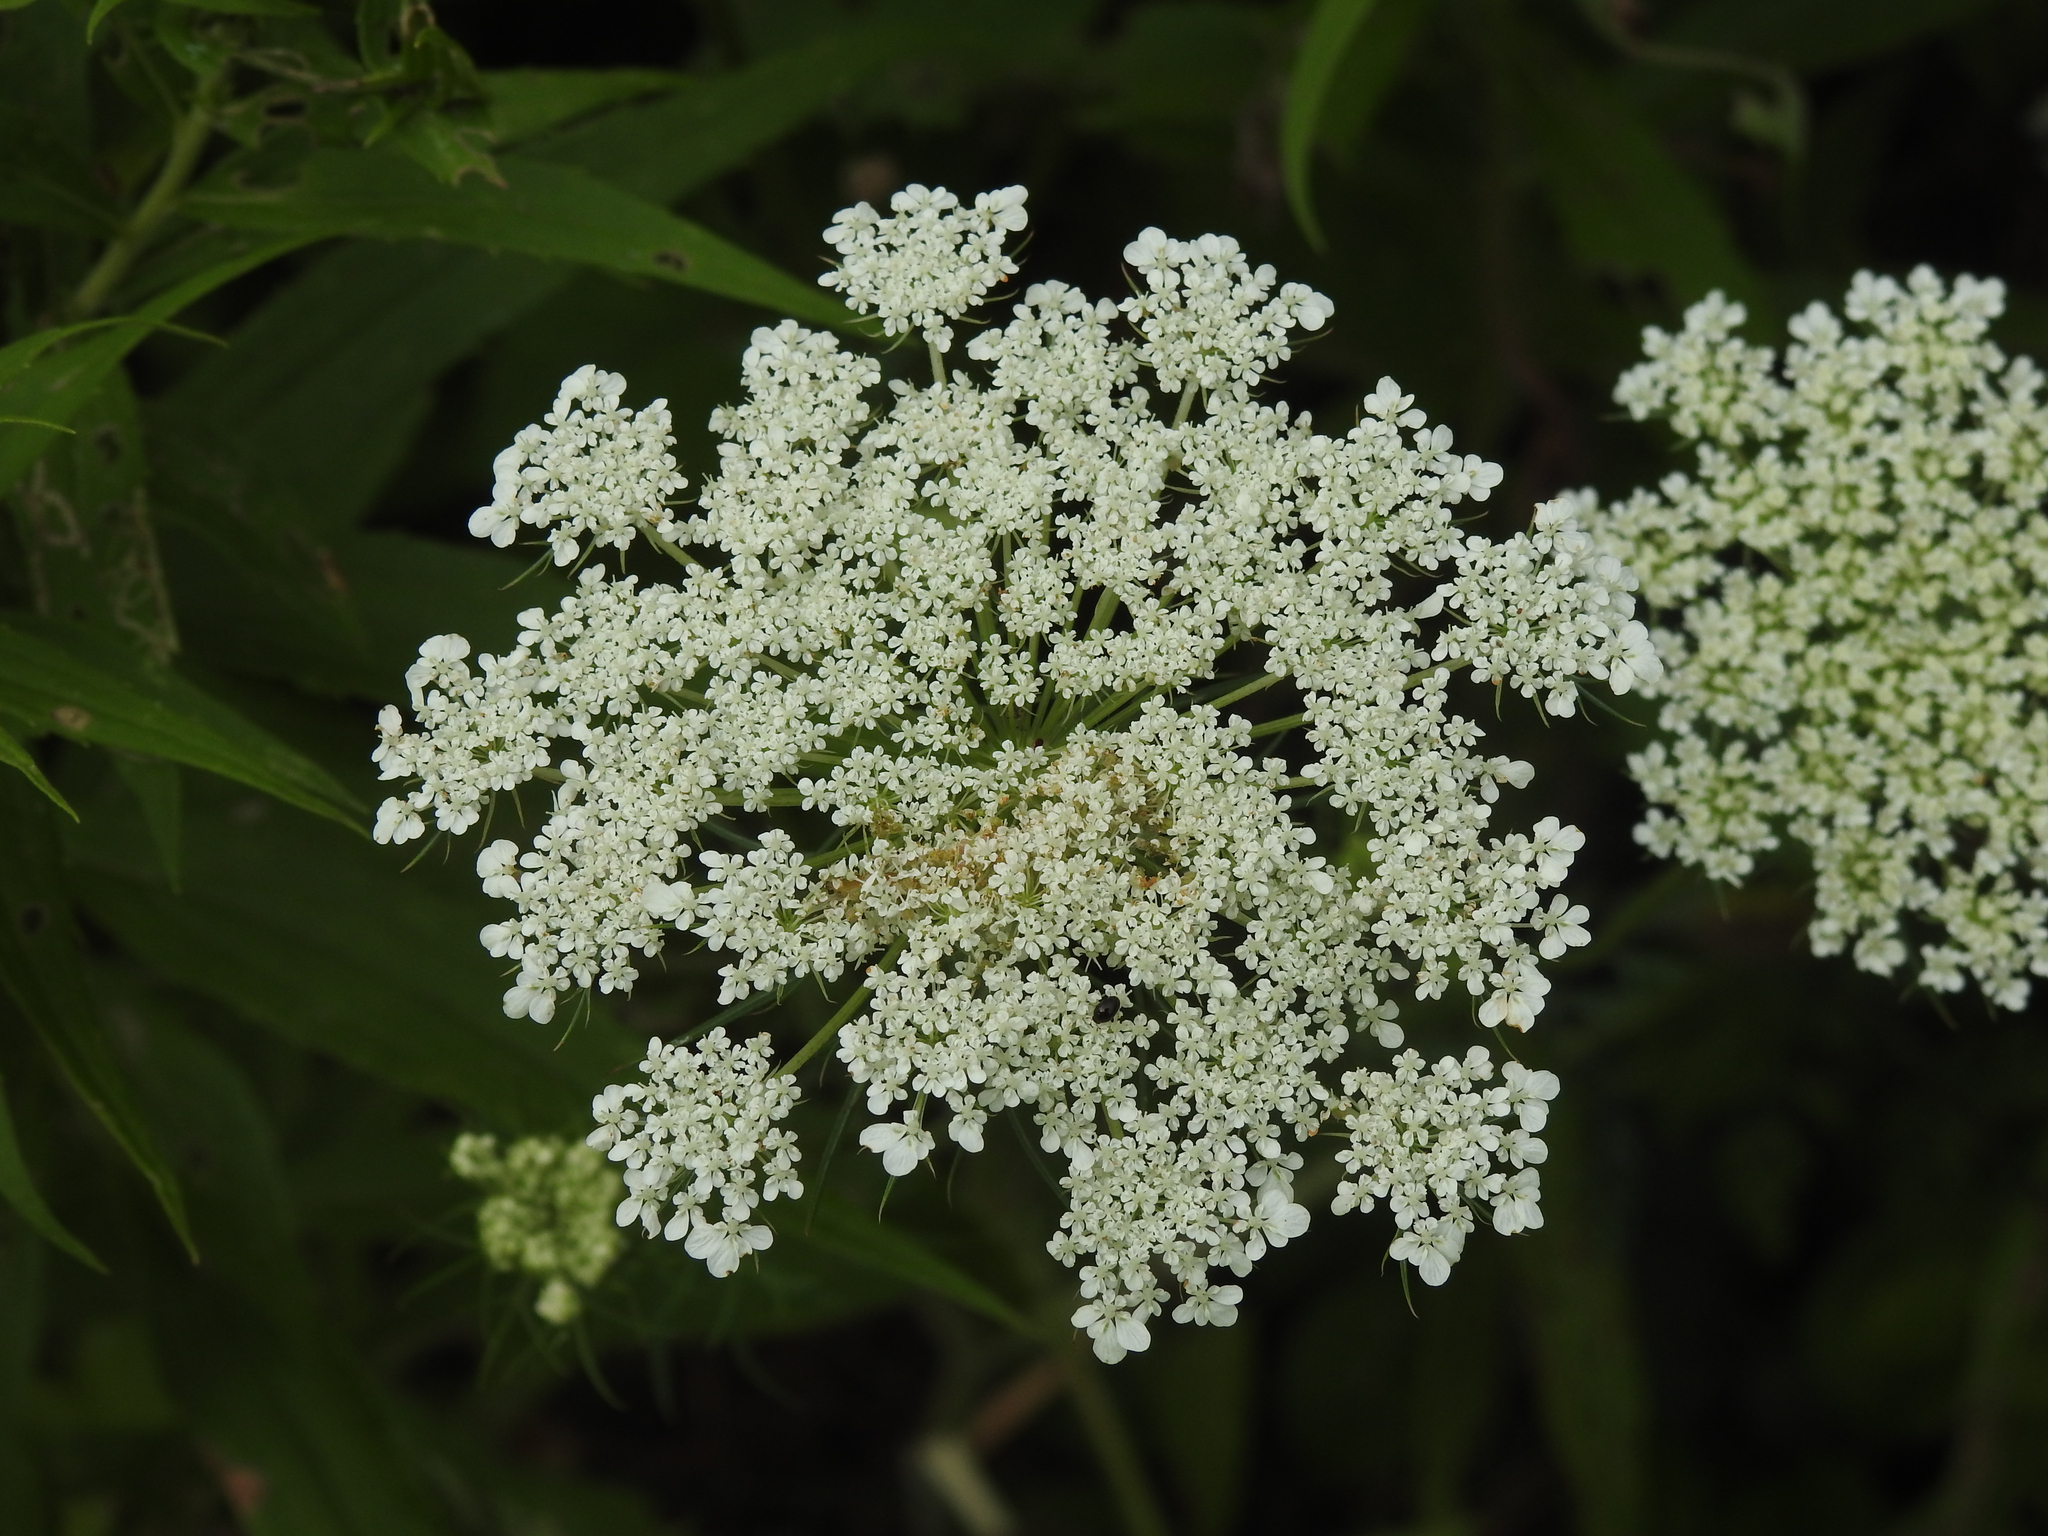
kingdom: Plantae
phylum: Tracheophyta
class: Magnoliopsida
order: Apiales
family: Apiaceae
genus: Daucus
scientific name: Daucus carota
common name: Wild carrot
